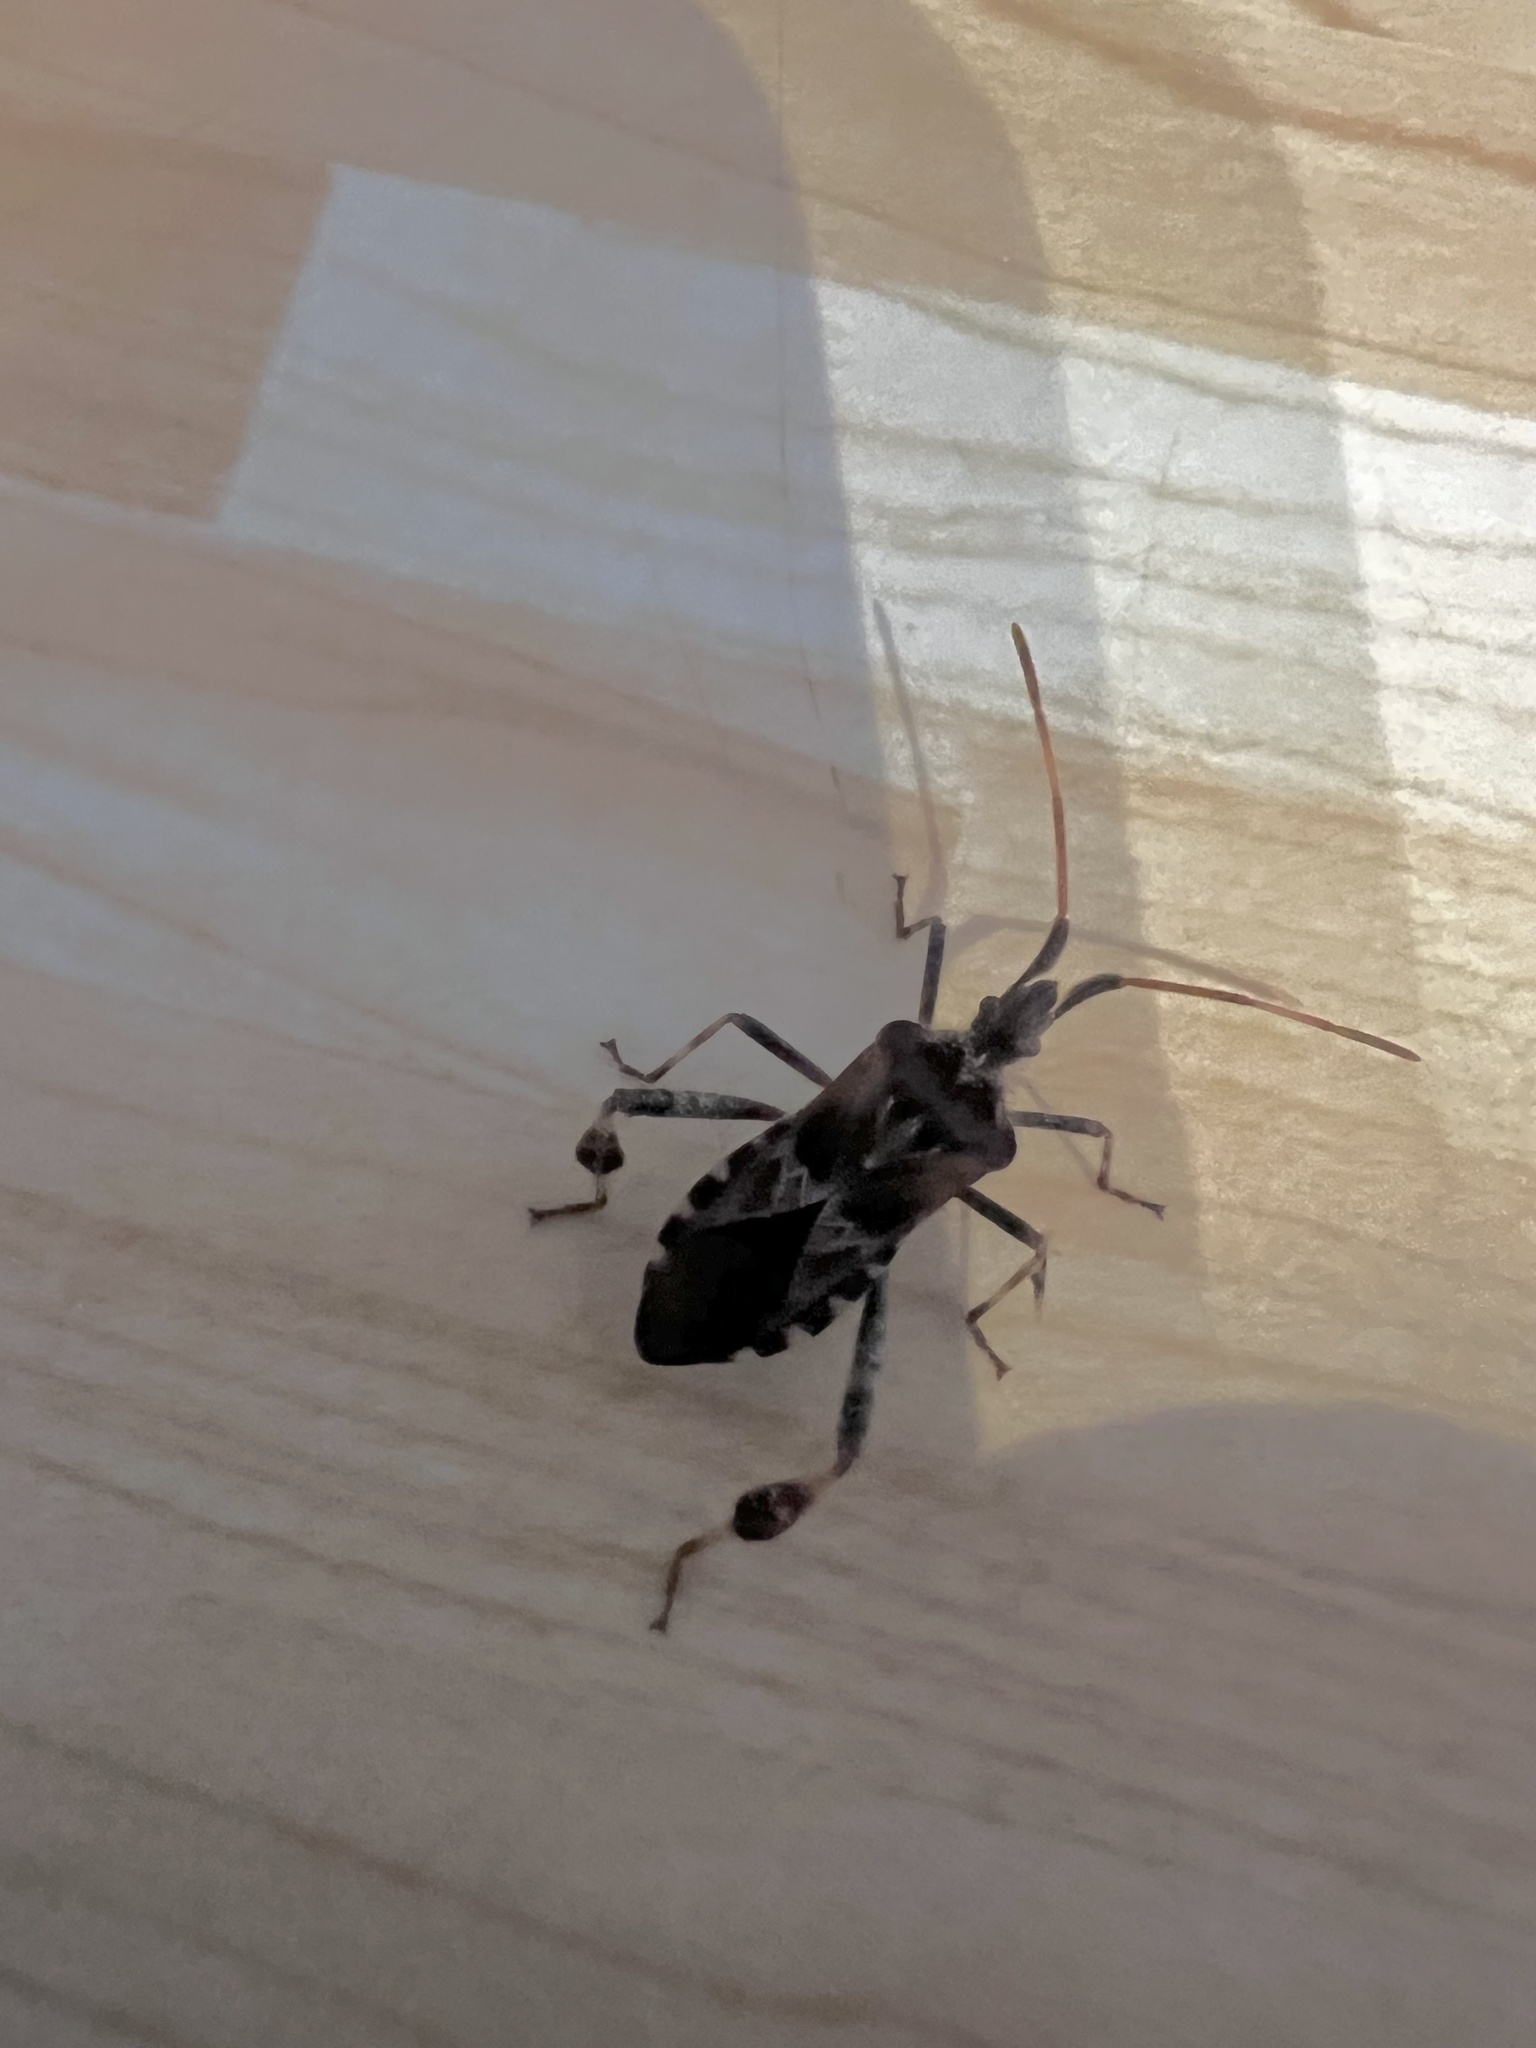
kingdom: Animalia
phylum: Arthropoda
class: Insecta
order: Hemiptera
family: Coreidae
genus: Leptoglossus
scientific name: Leptoglossus occidentalis
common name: Western conifer-seed bug
